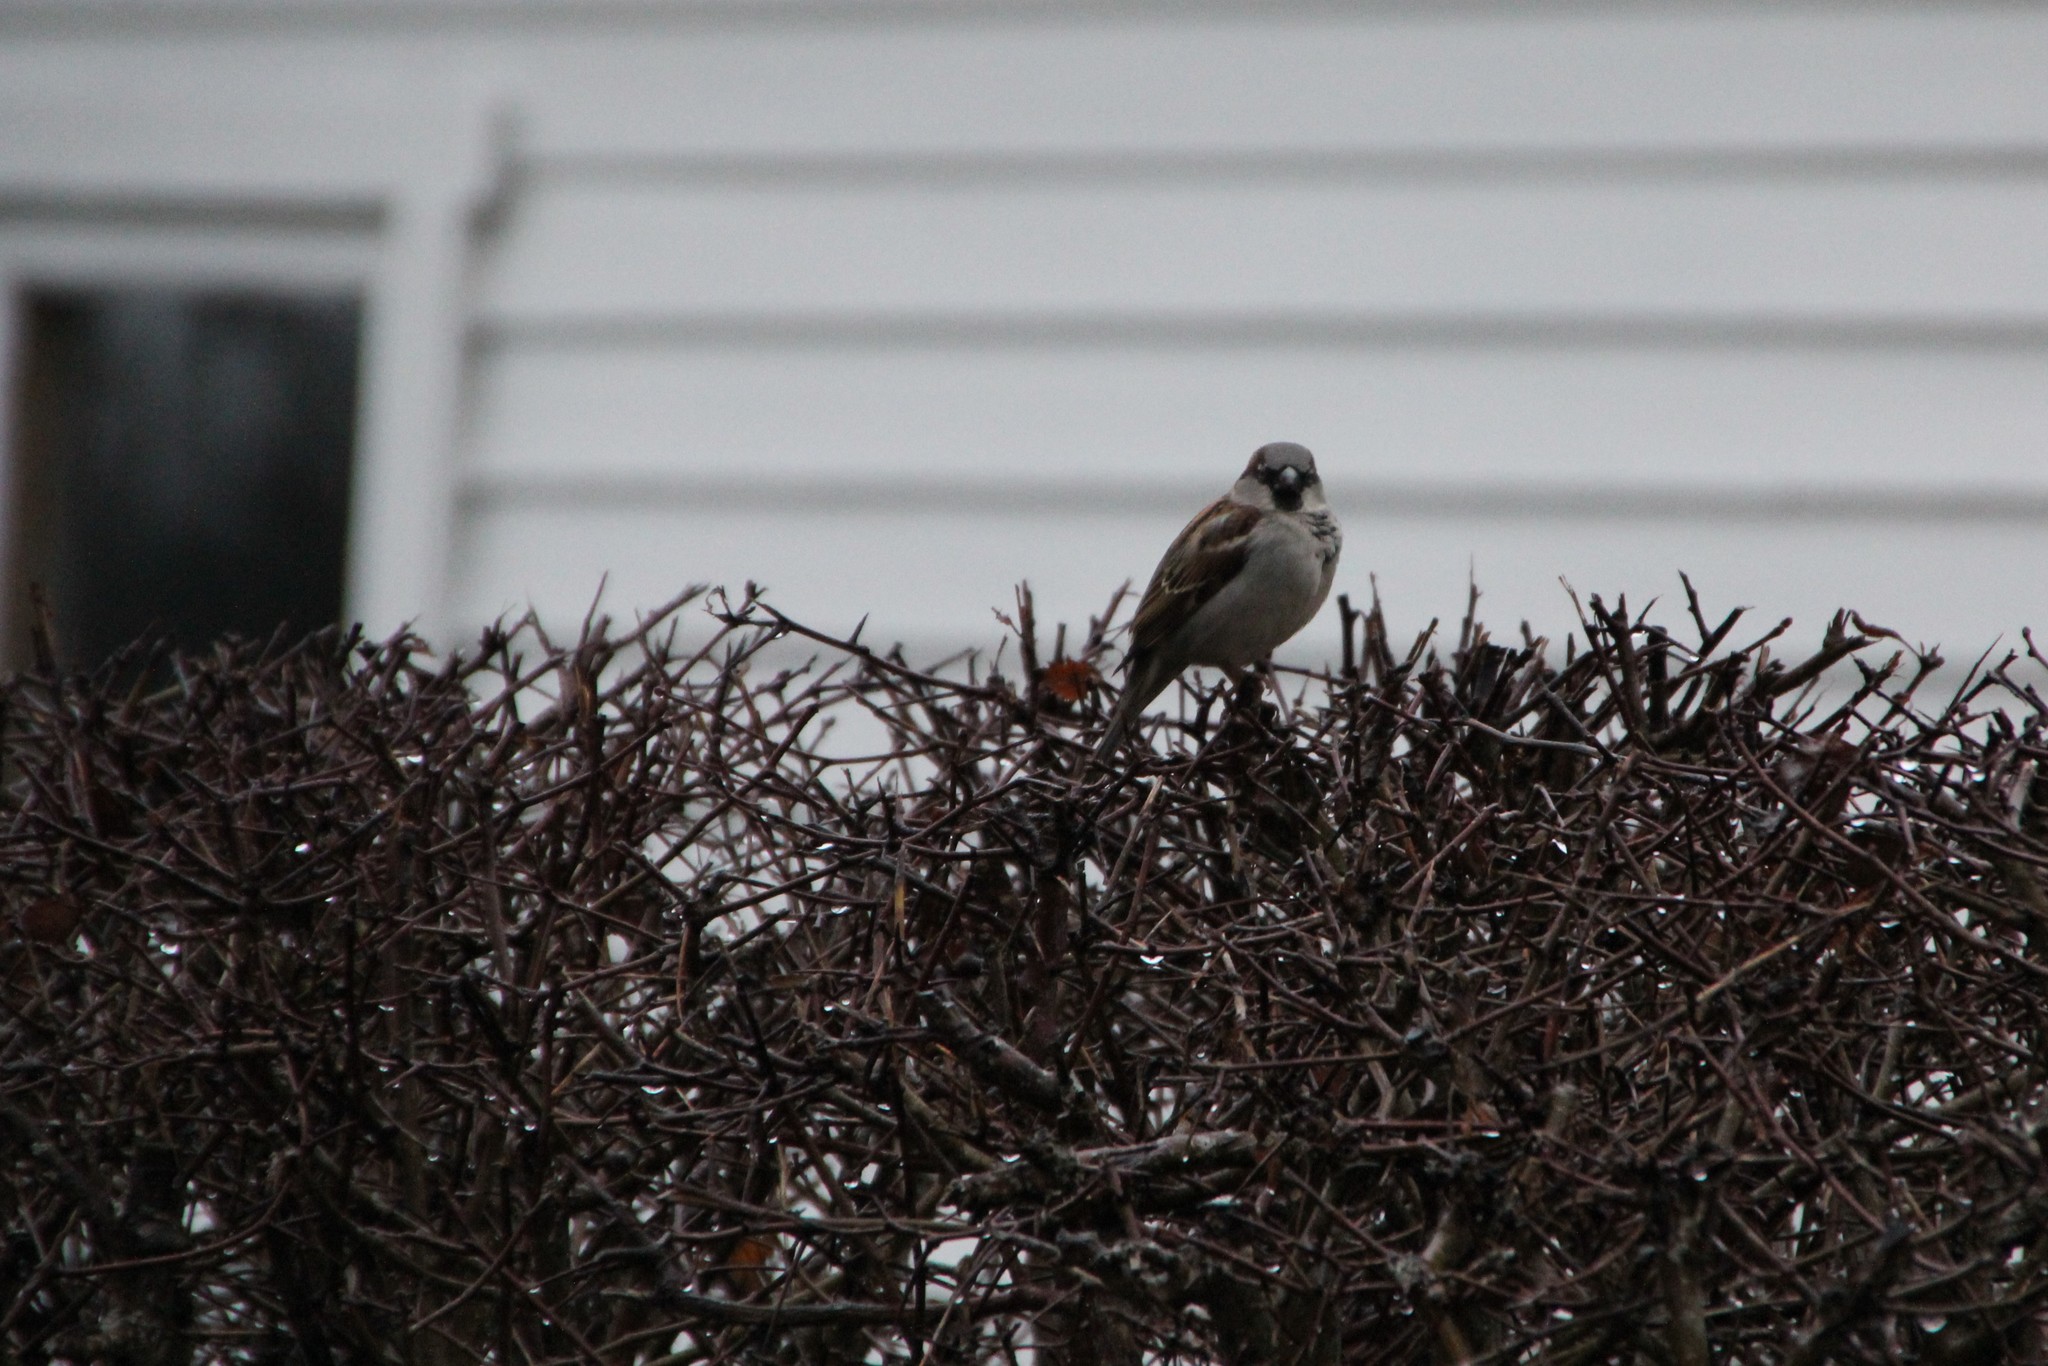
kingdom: Animalia
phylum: Chordata
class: Aves
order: Passeriformes
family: Passeridae
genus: Passer
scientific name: Passer domesticus
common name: House sparrow
